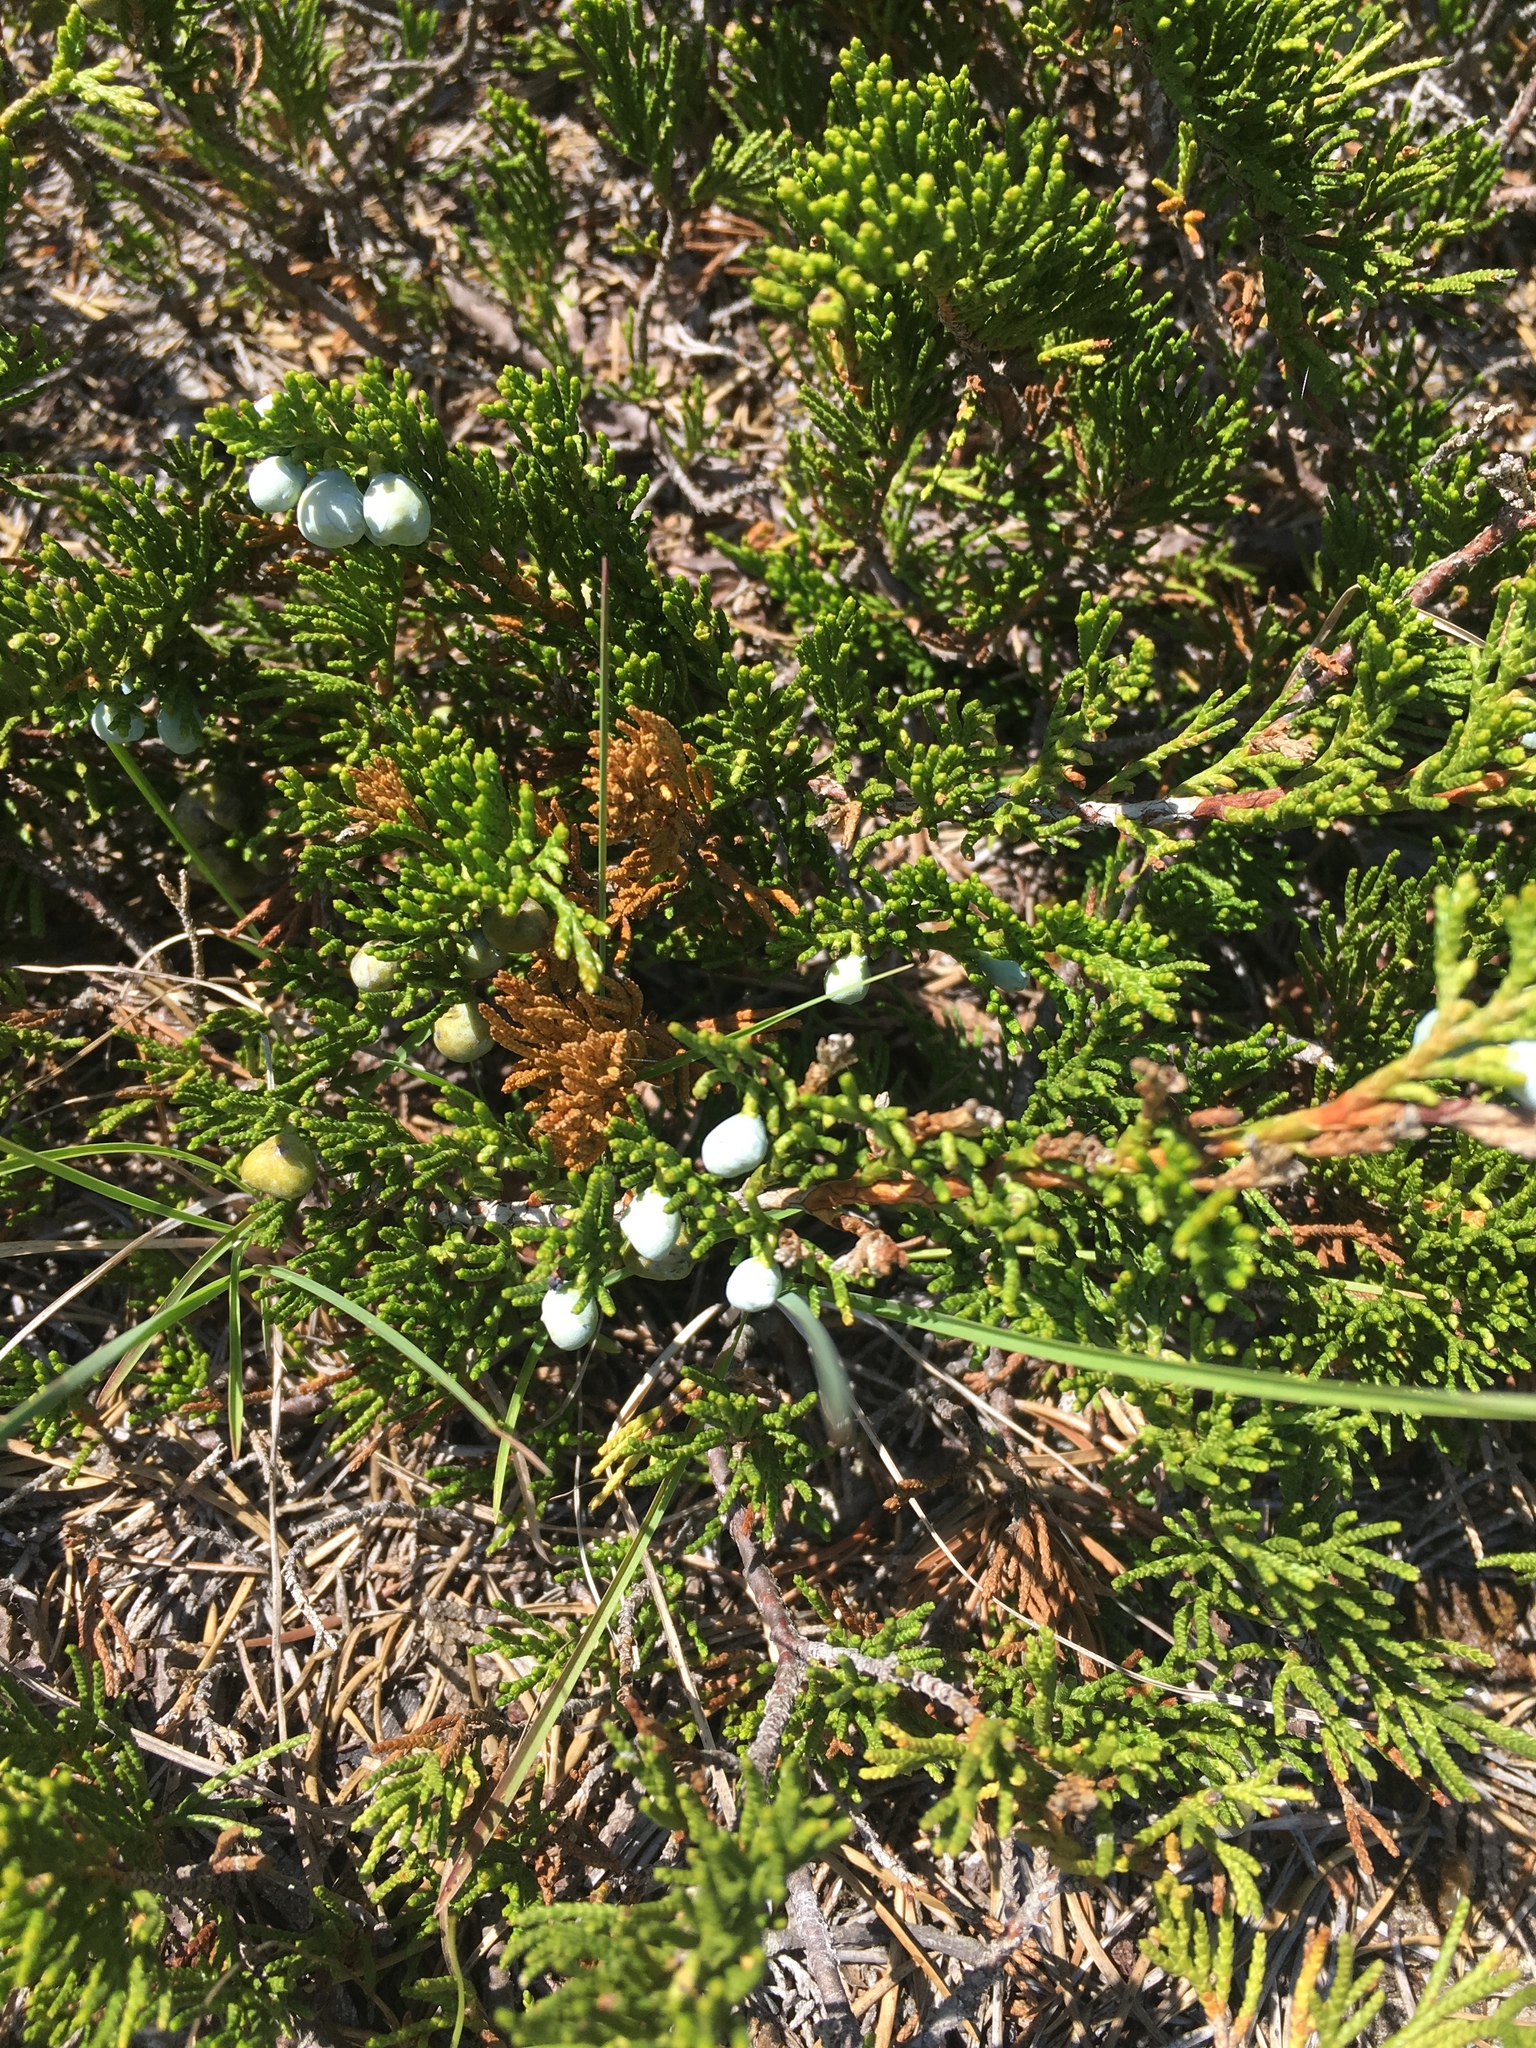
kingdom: Plantae
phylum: Tracheophyta
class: Pinopsida
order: Pinales
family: Cupressaceae
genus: Juniperus
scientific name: Juniperus horizontalis
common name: Creeping juniper
